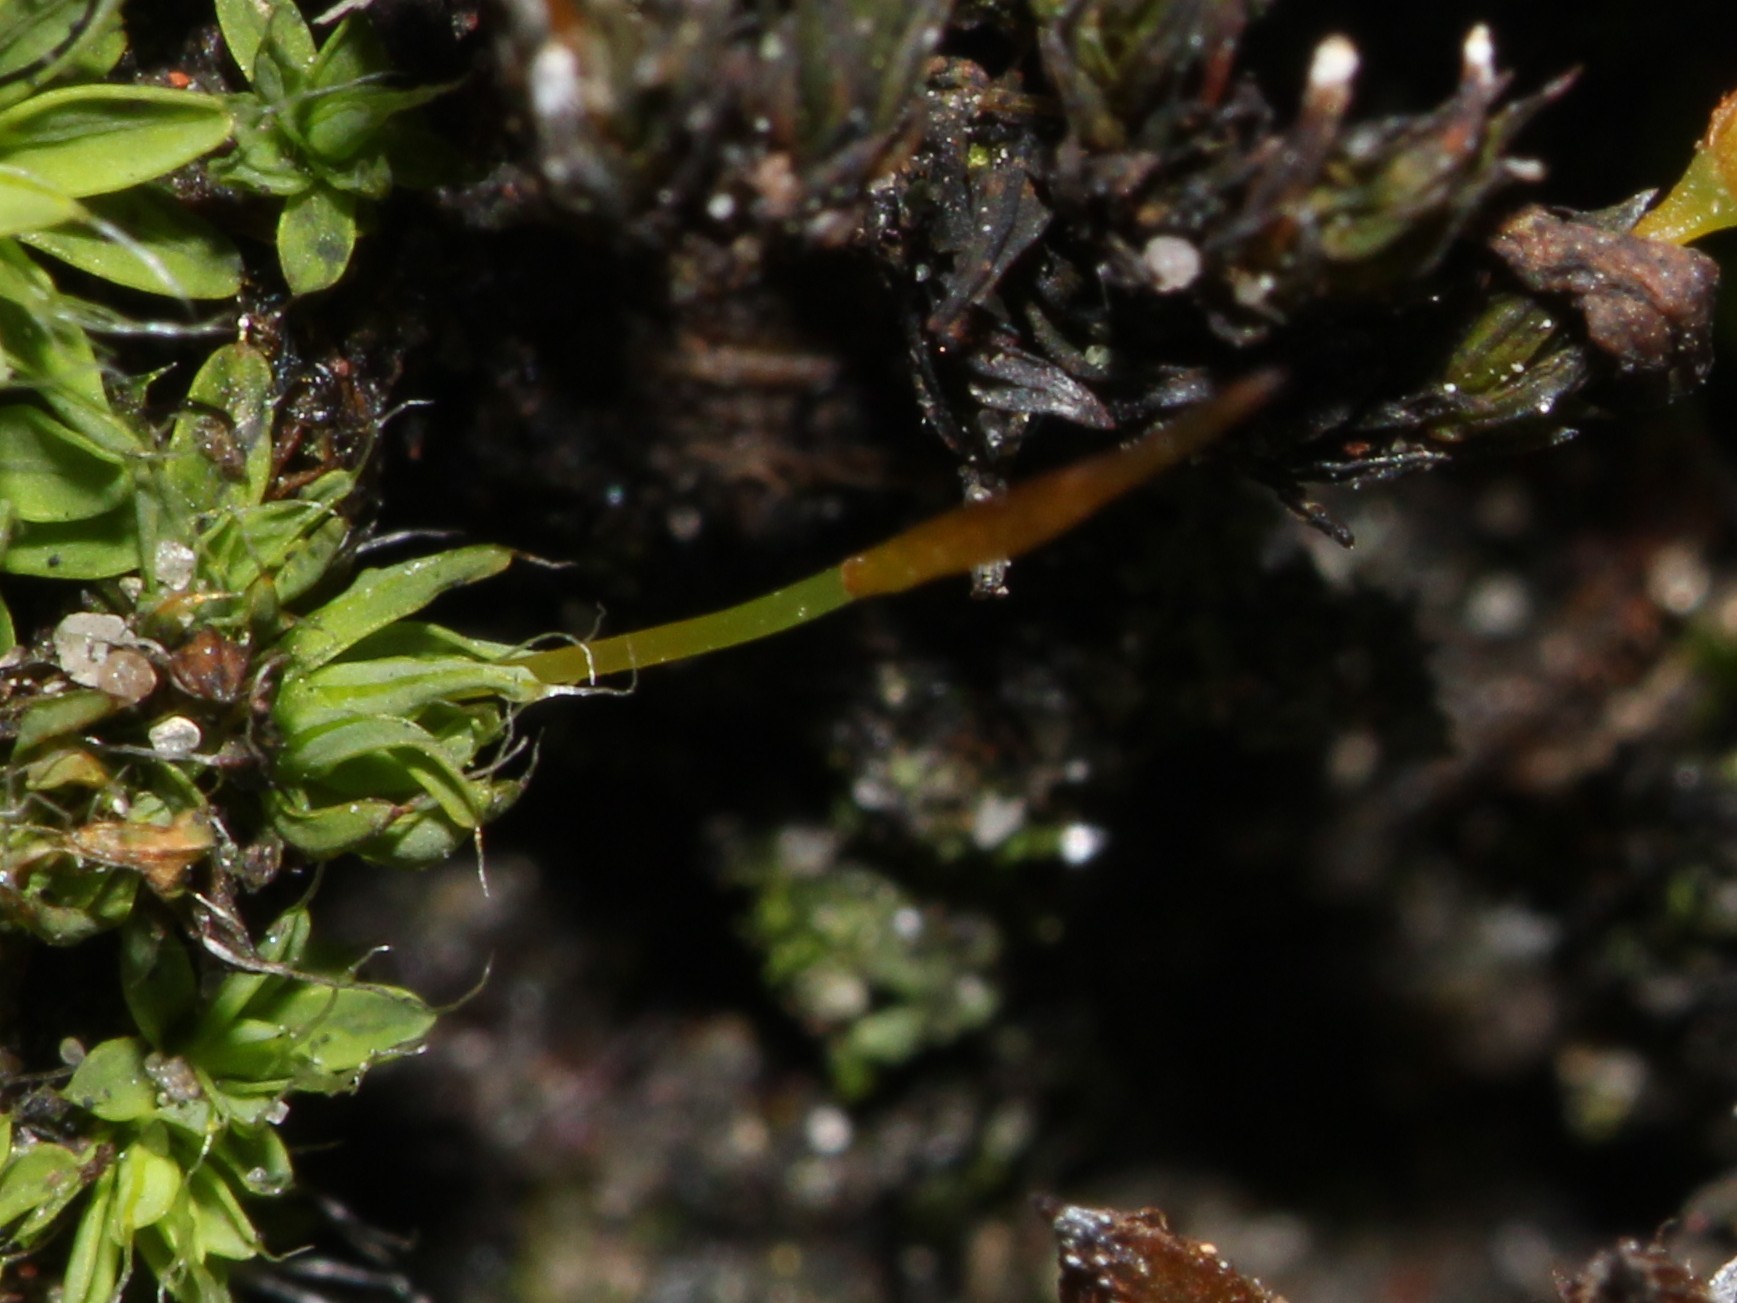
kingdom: Plantae
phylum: Bryophyta
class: Bryopsida
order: Pottiales
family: Pottiaceae
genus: Tortula
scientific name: Tortula muralis
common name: Wall screw-moss
